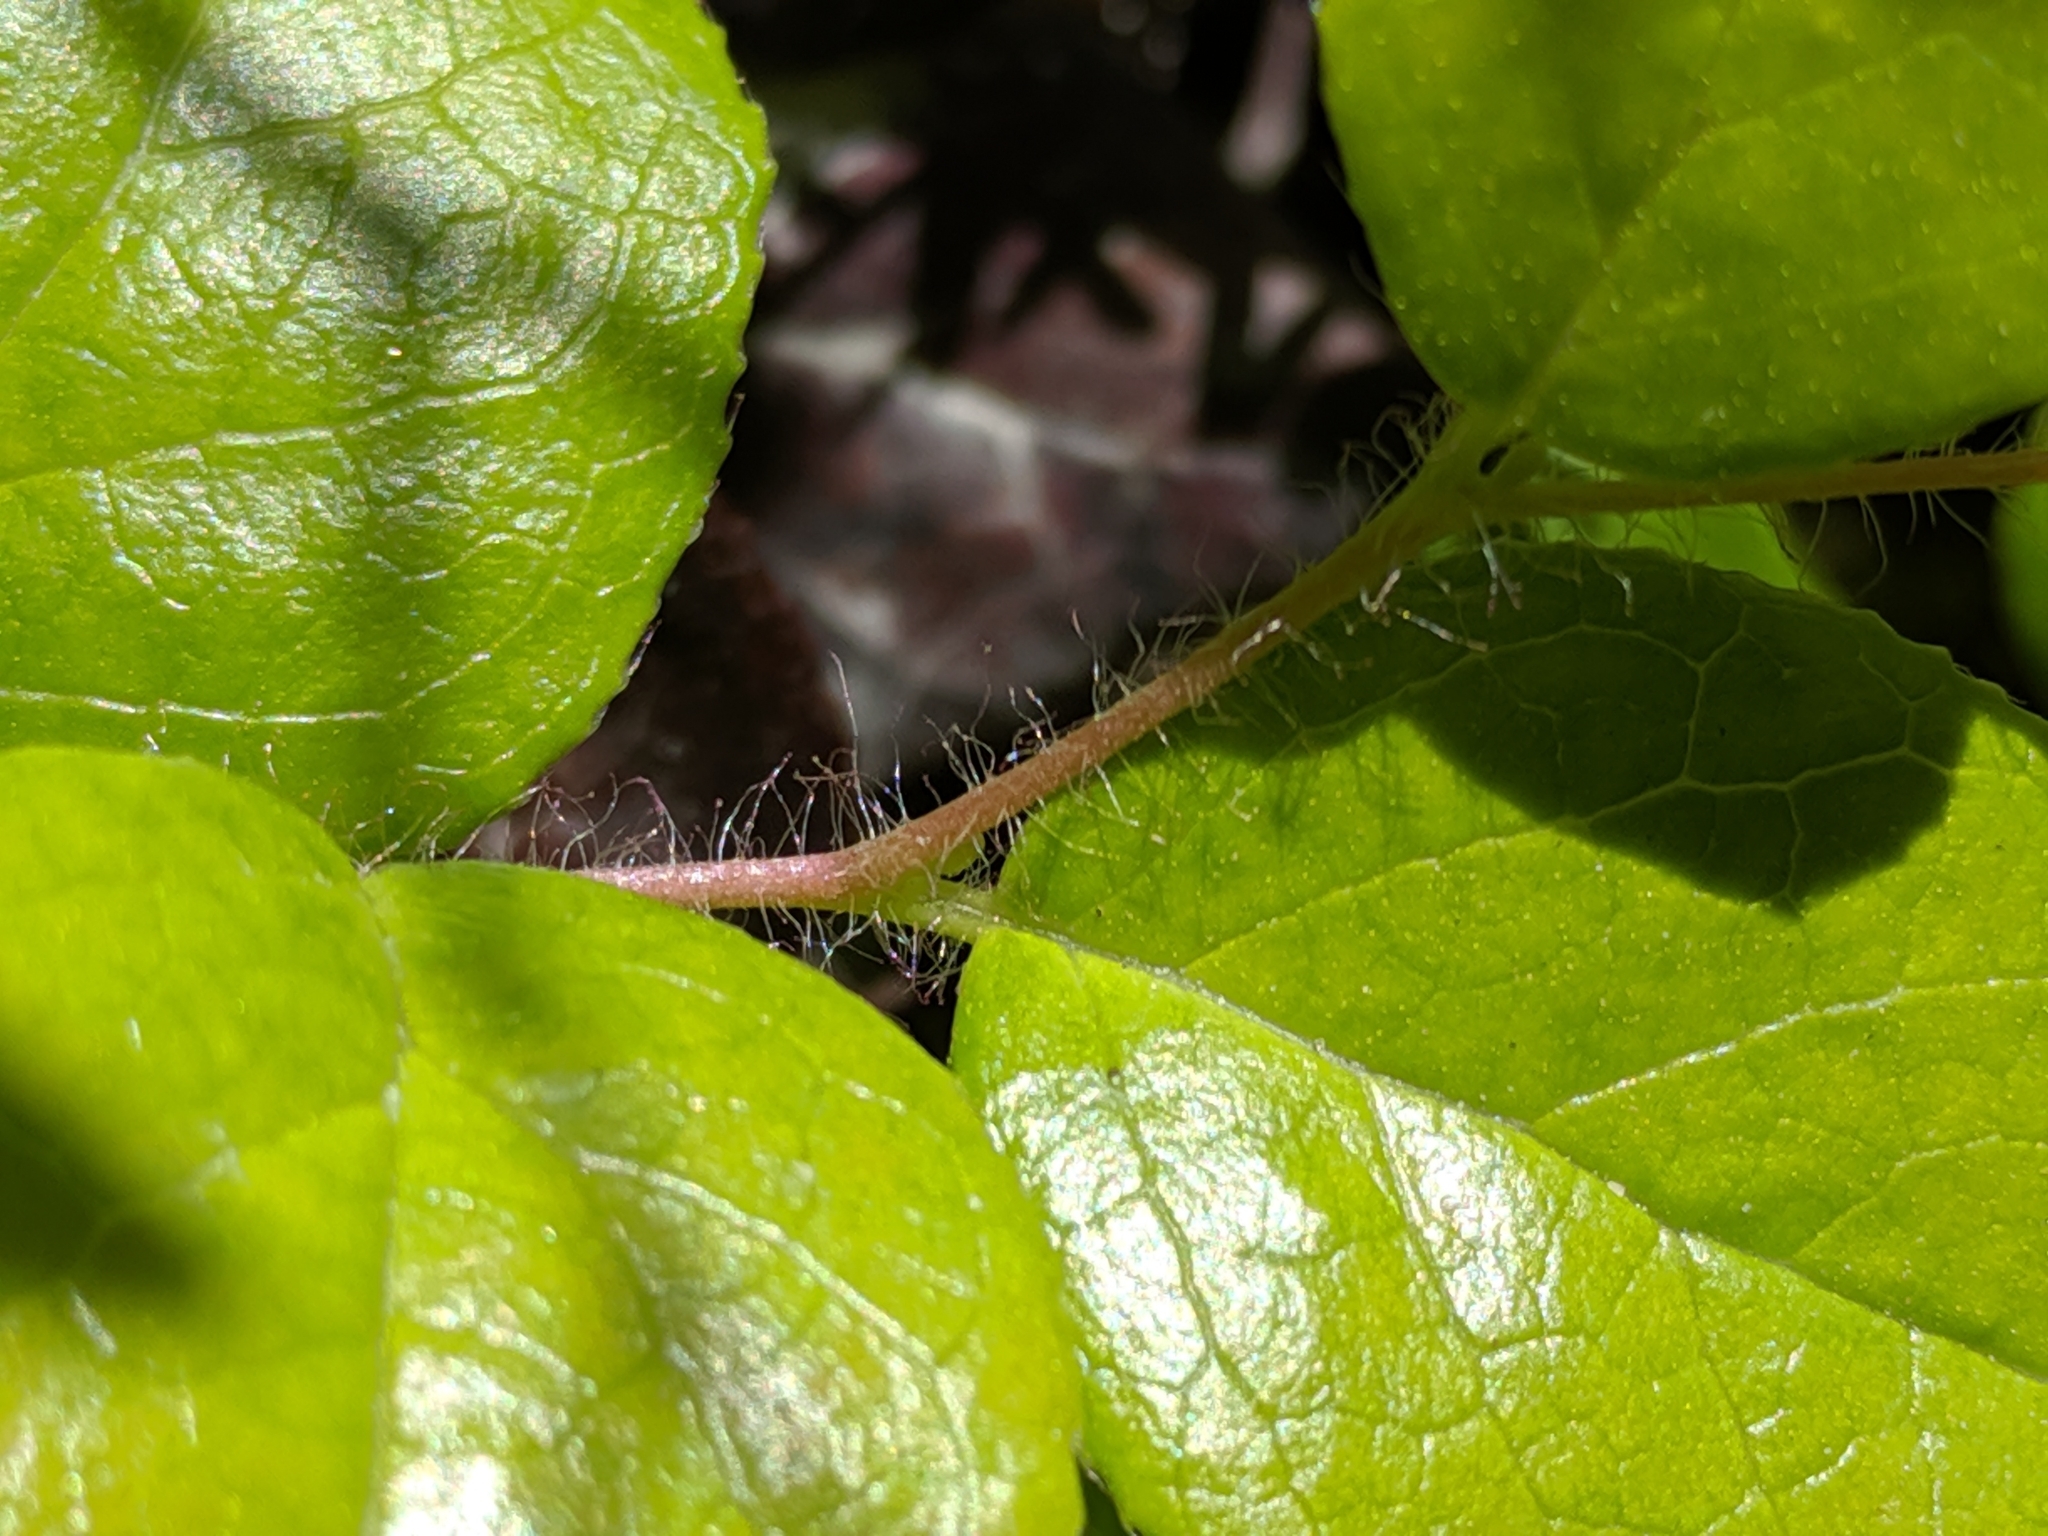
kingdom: Plantae
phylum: Tracheophyta
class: Magnoliopsida
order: Ericales
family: Ericaceae
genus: Gaultheria
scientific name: Gaultheria ovatifolia
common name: Oregon wintergreen
